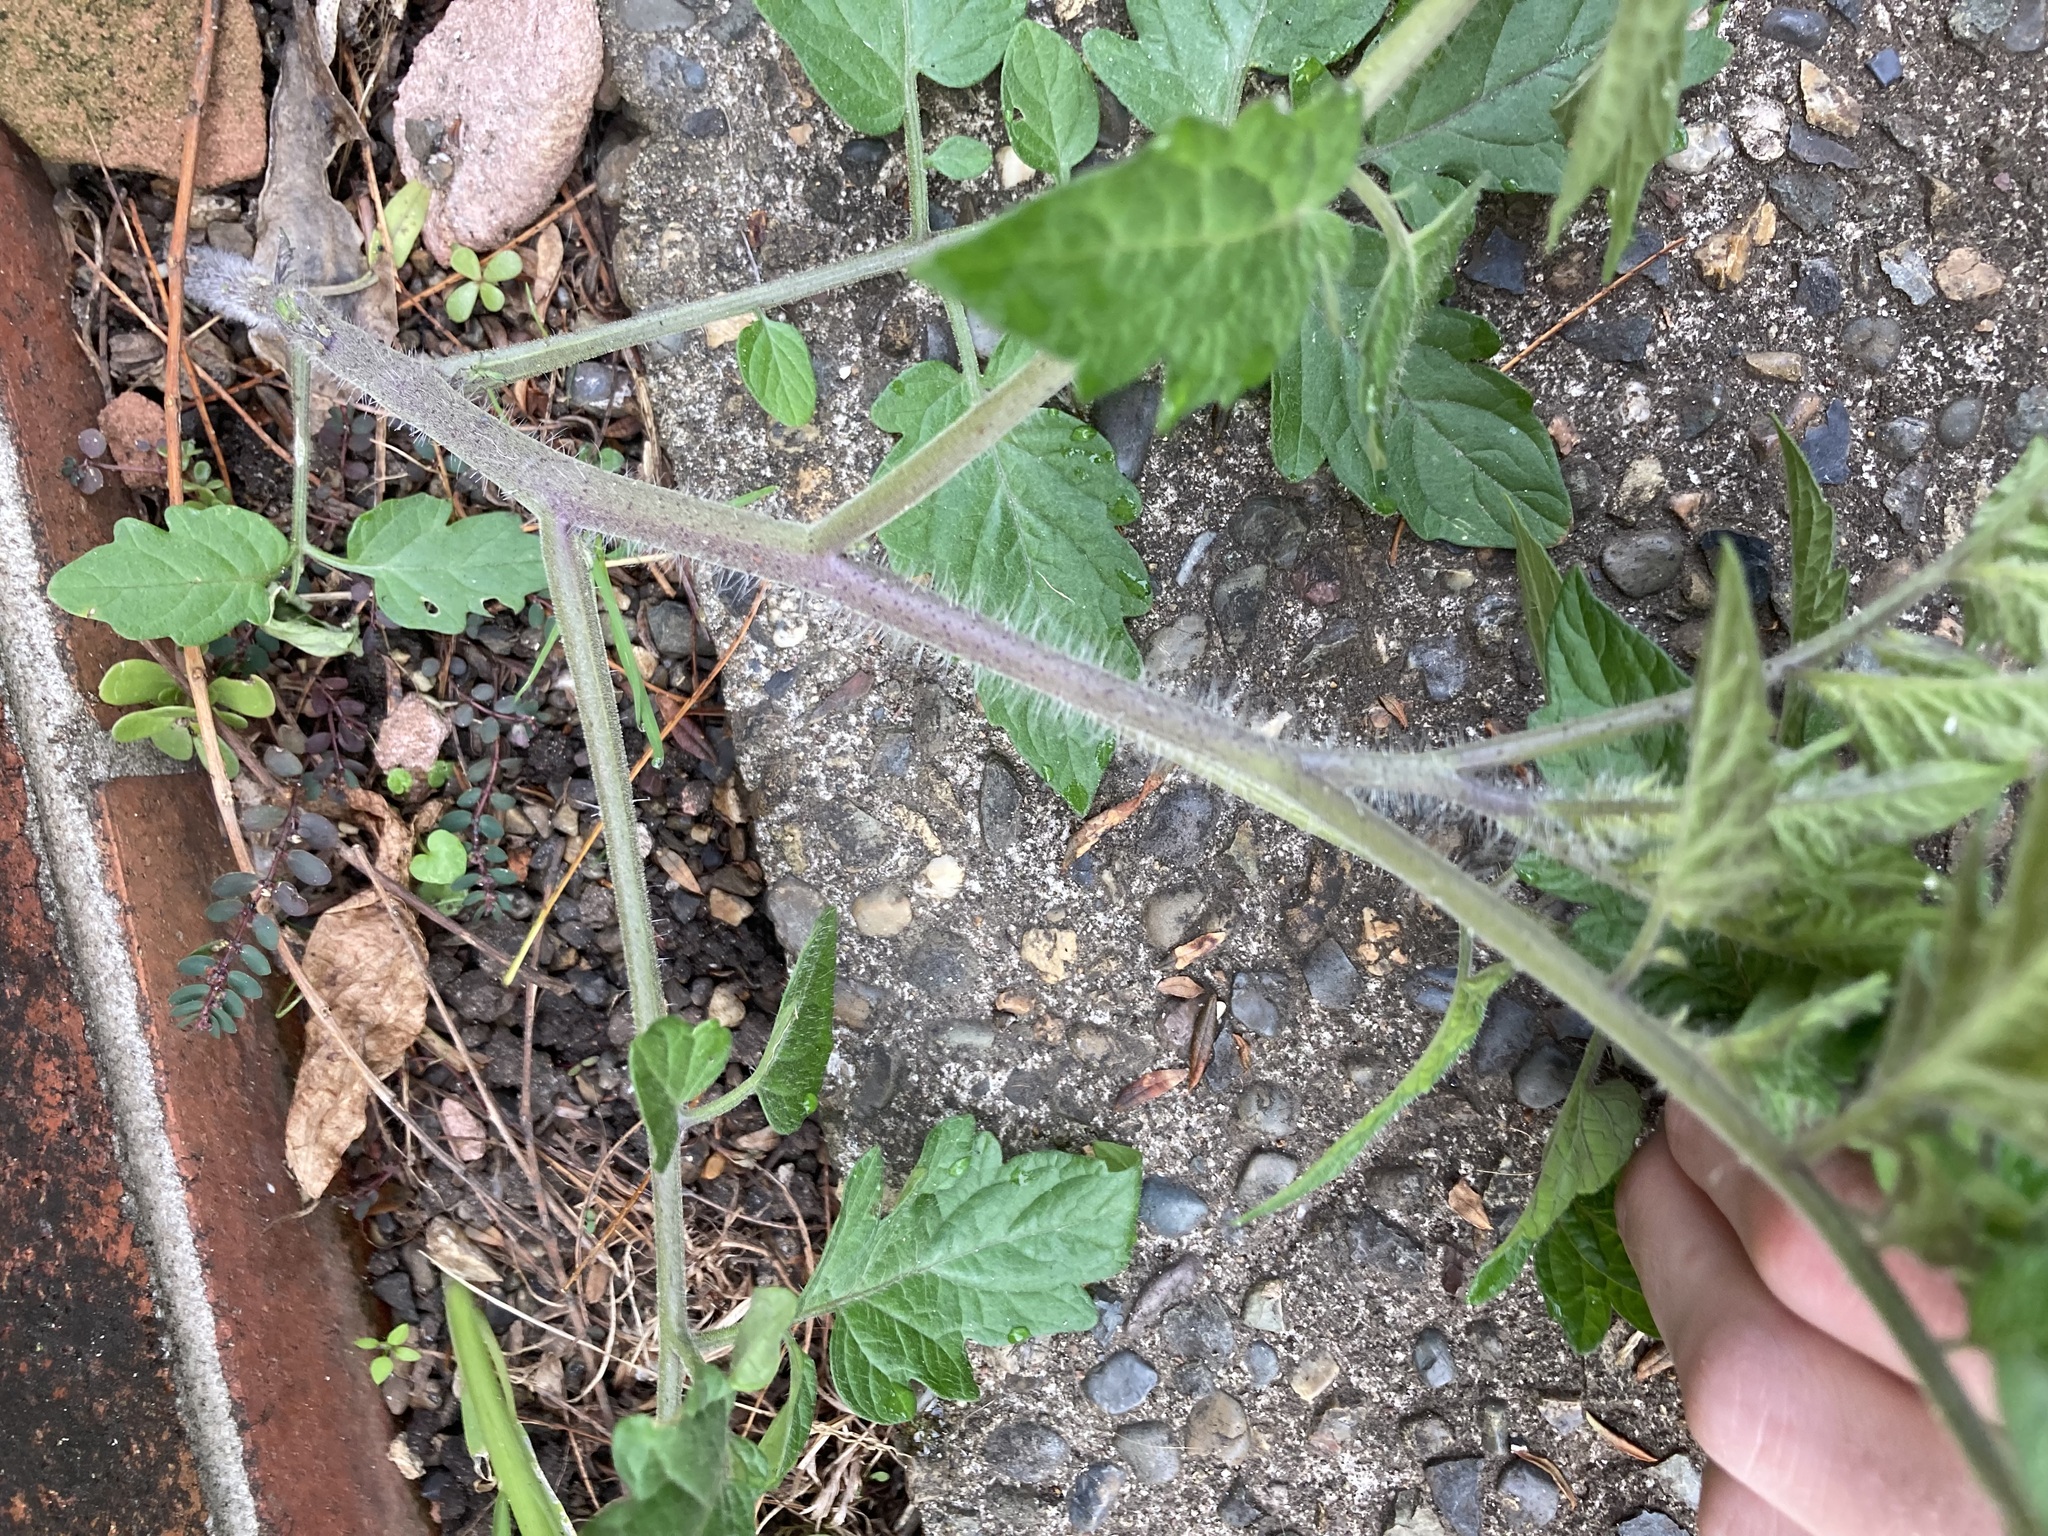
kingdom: Plantae
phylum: Tracheophyta
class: Magnoliopsida
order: Solanales
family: Solanaceae
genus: Solanum
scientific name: Solanum lycopersicum
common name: Garden tomato
